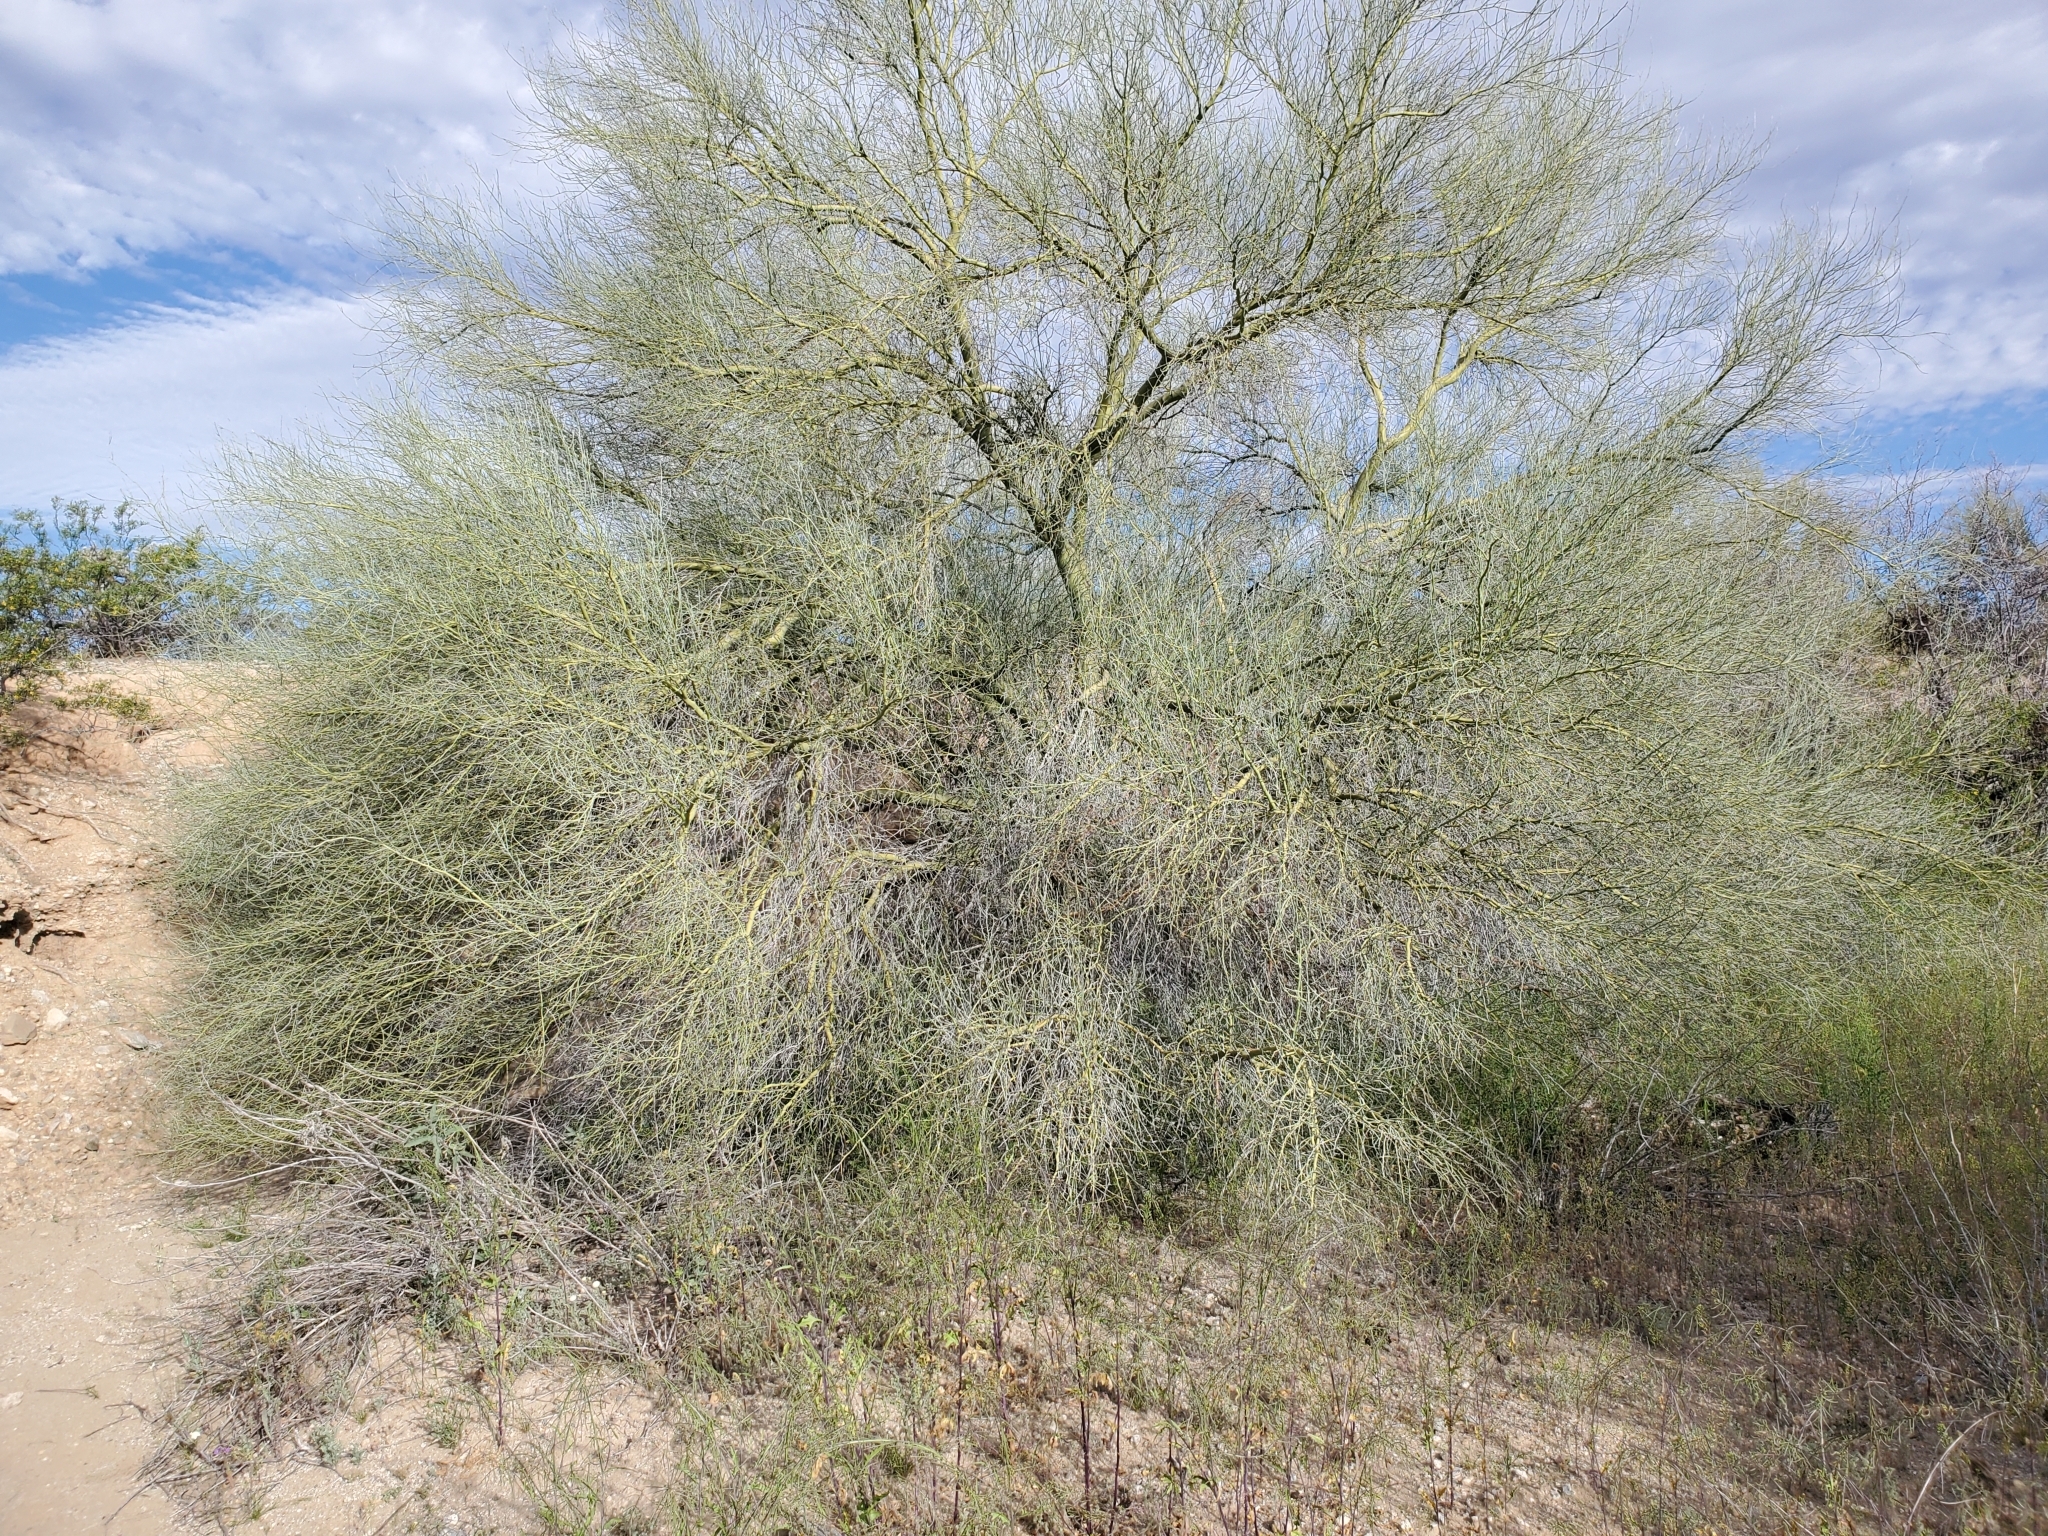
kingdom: Plantae
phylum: Tracheophyta
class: Magnoliopsida
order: Fabales
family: Fabaceae
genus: Parkinsonia
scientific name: Parkinsonia florida
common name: Blue paloverde
